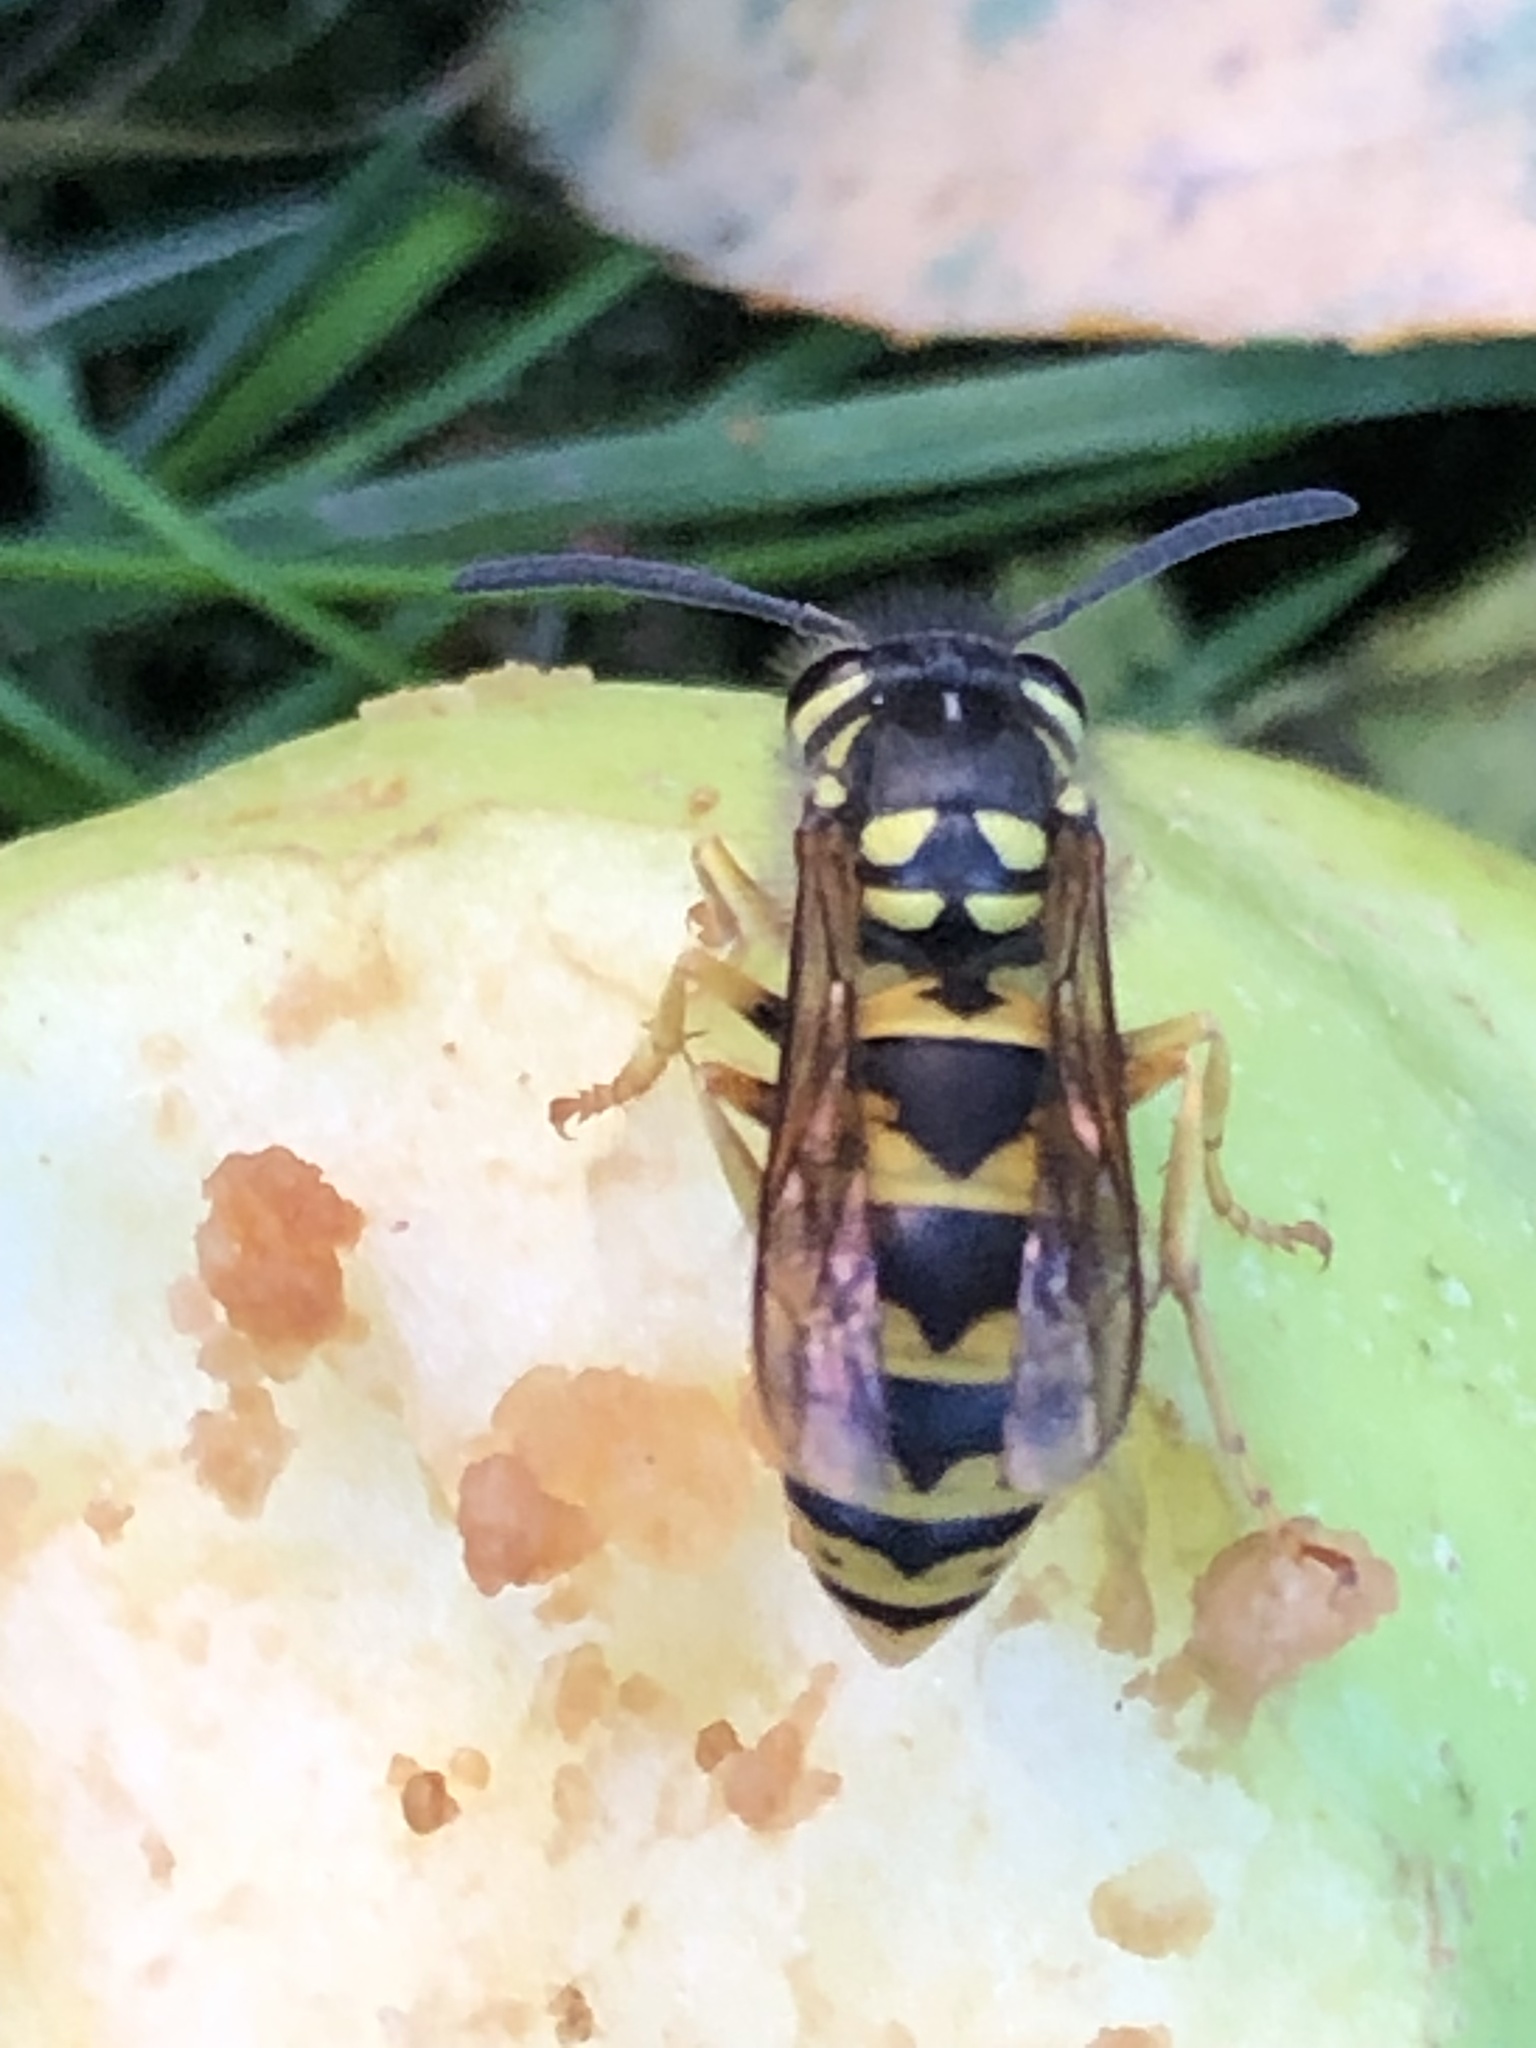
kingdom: Animalia
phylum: Arthropoda
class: Insecta
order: Hymenoptera
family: Vespidae
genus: Vespula
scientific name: Vespula germanica
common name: German wasp
